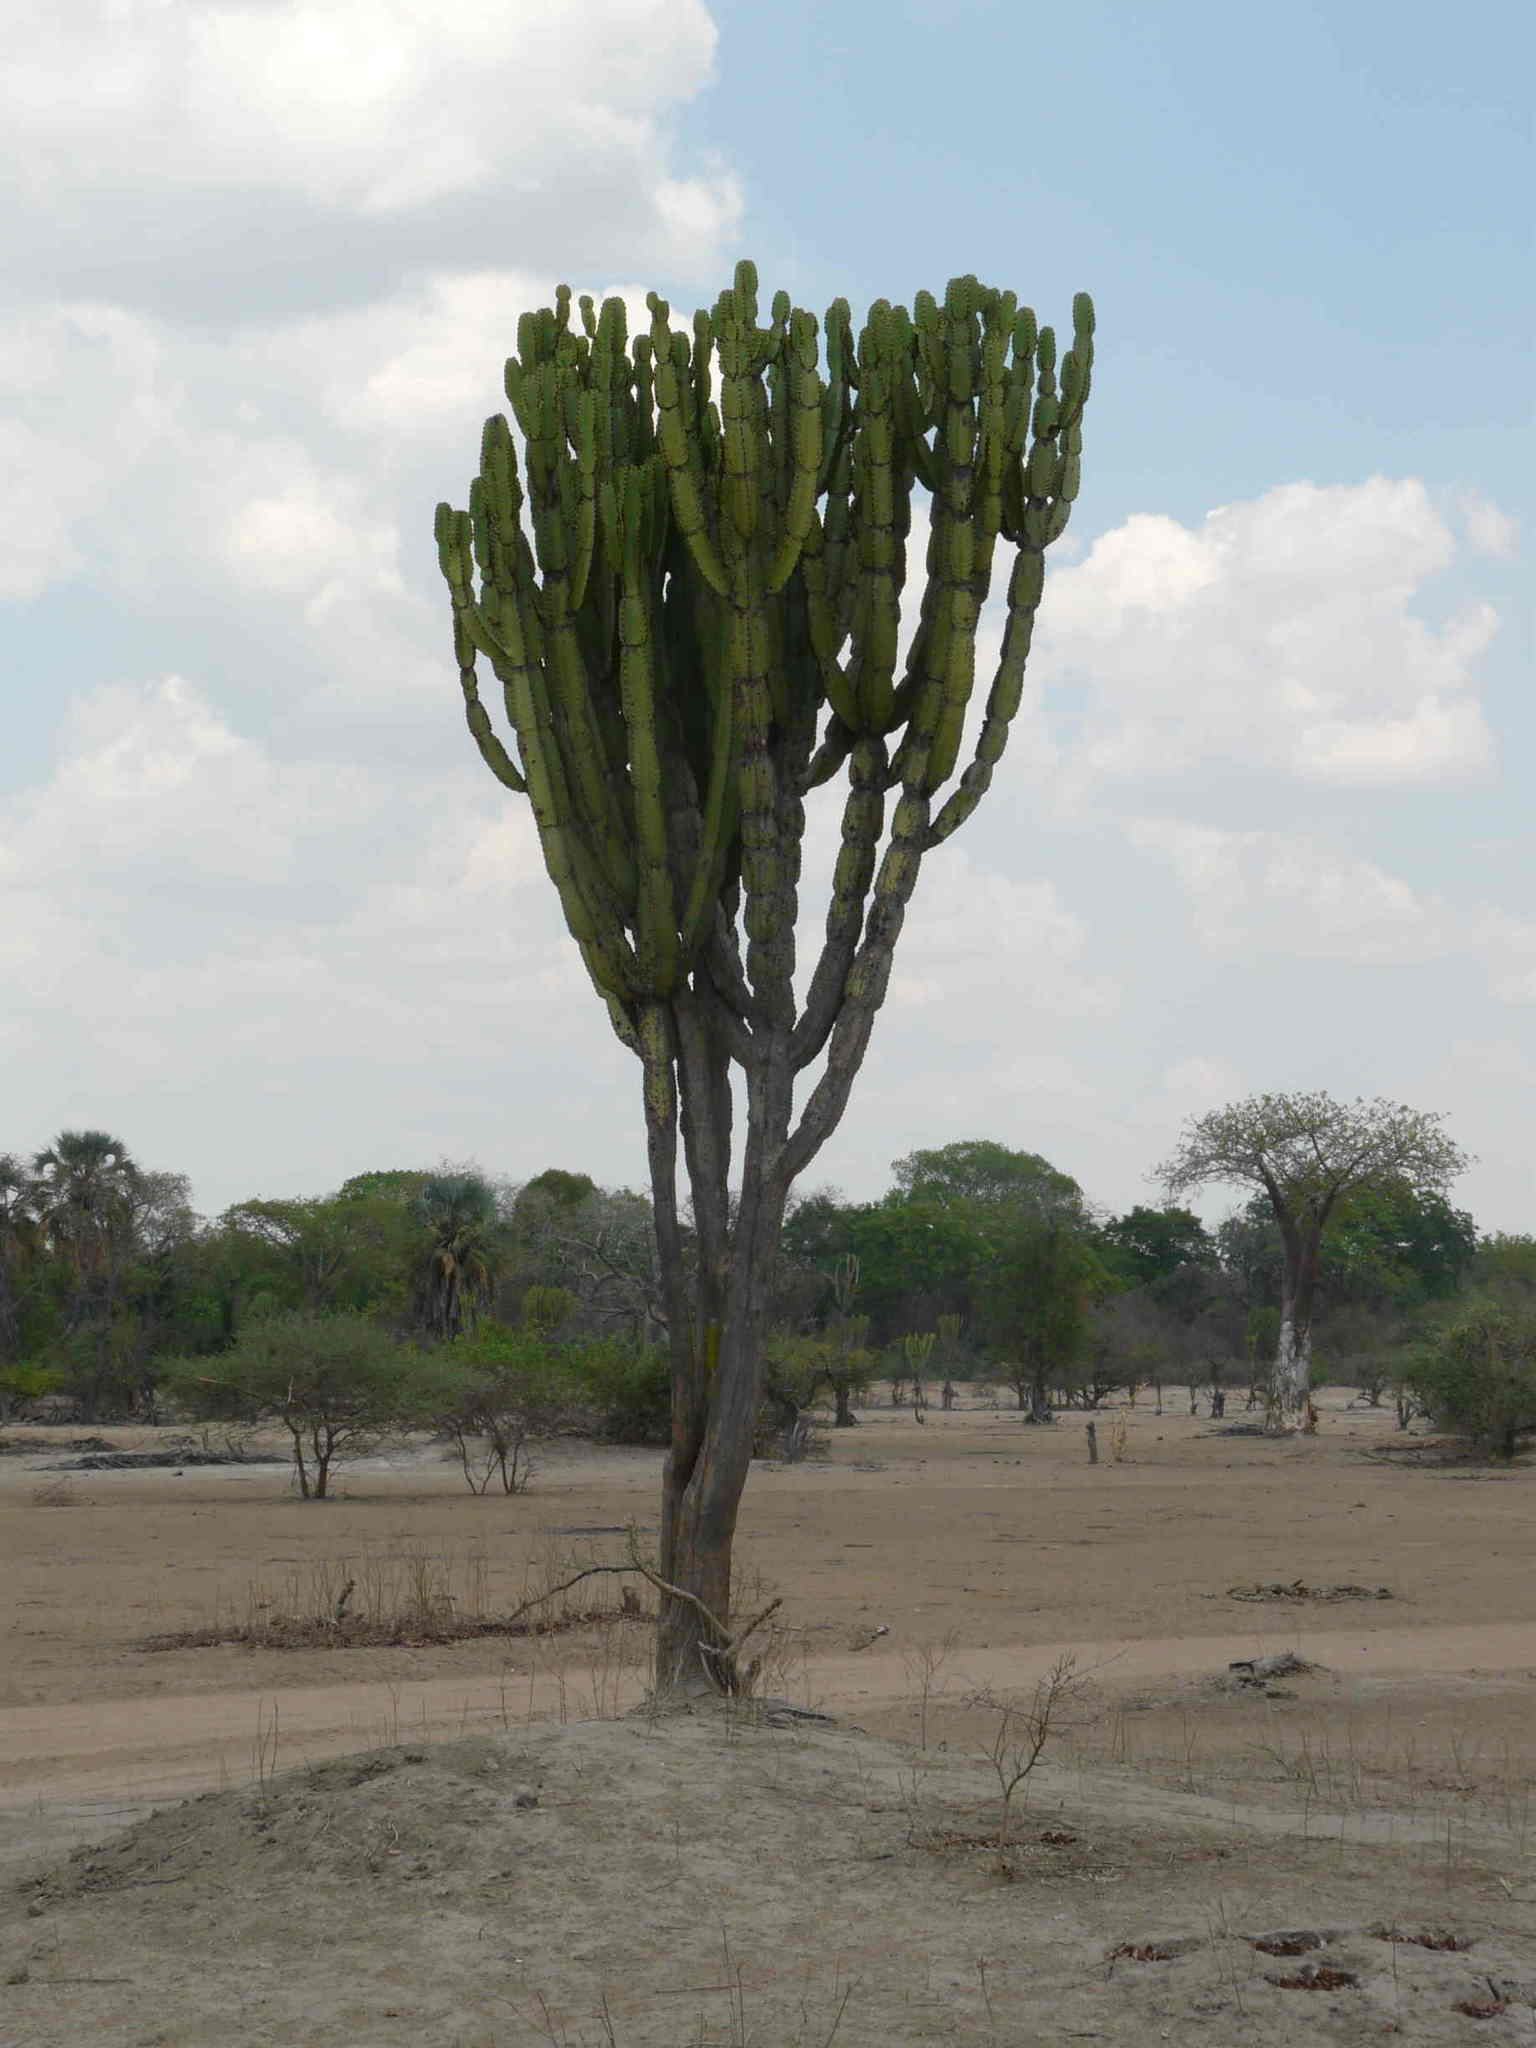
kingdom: Plantae
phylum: Tracheophyta
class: Magnoliopsida
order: Malpighiales
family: Euphorbiaceae
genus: Euphorbia
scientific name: Euphorbia ingens
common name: Cactus spurge
